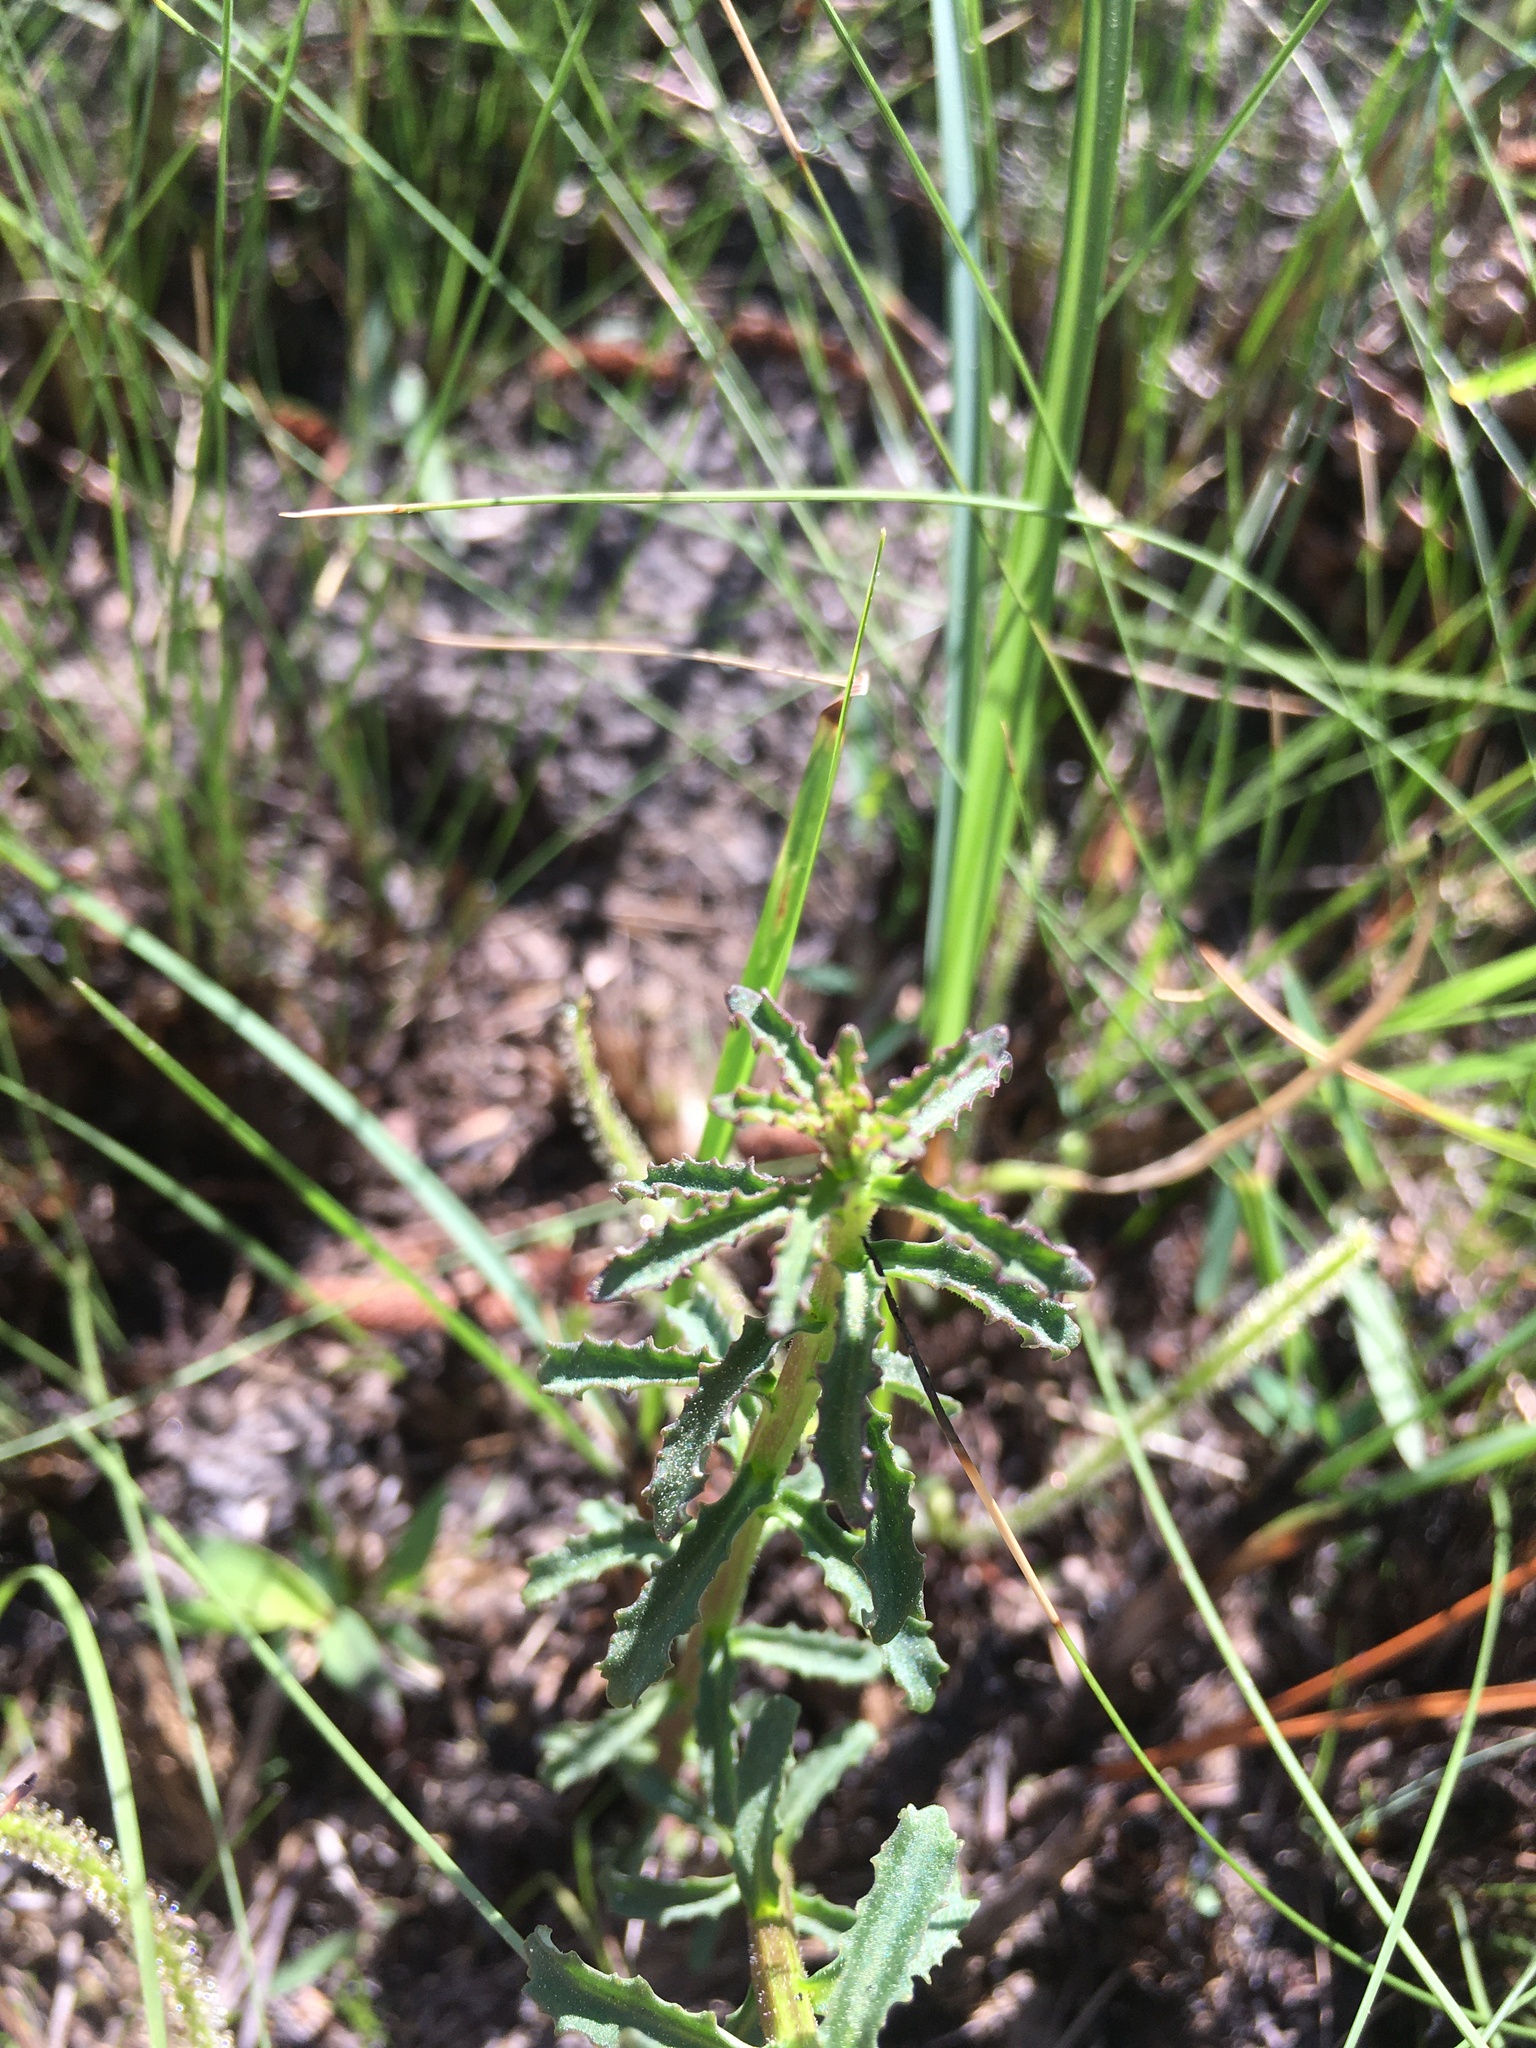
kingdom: Plantae
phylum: Tracheophyta
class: Magnoliopsida
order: Asterales
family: Campanulaceae
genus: Lobelia
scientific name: Lobelia brevifolia
